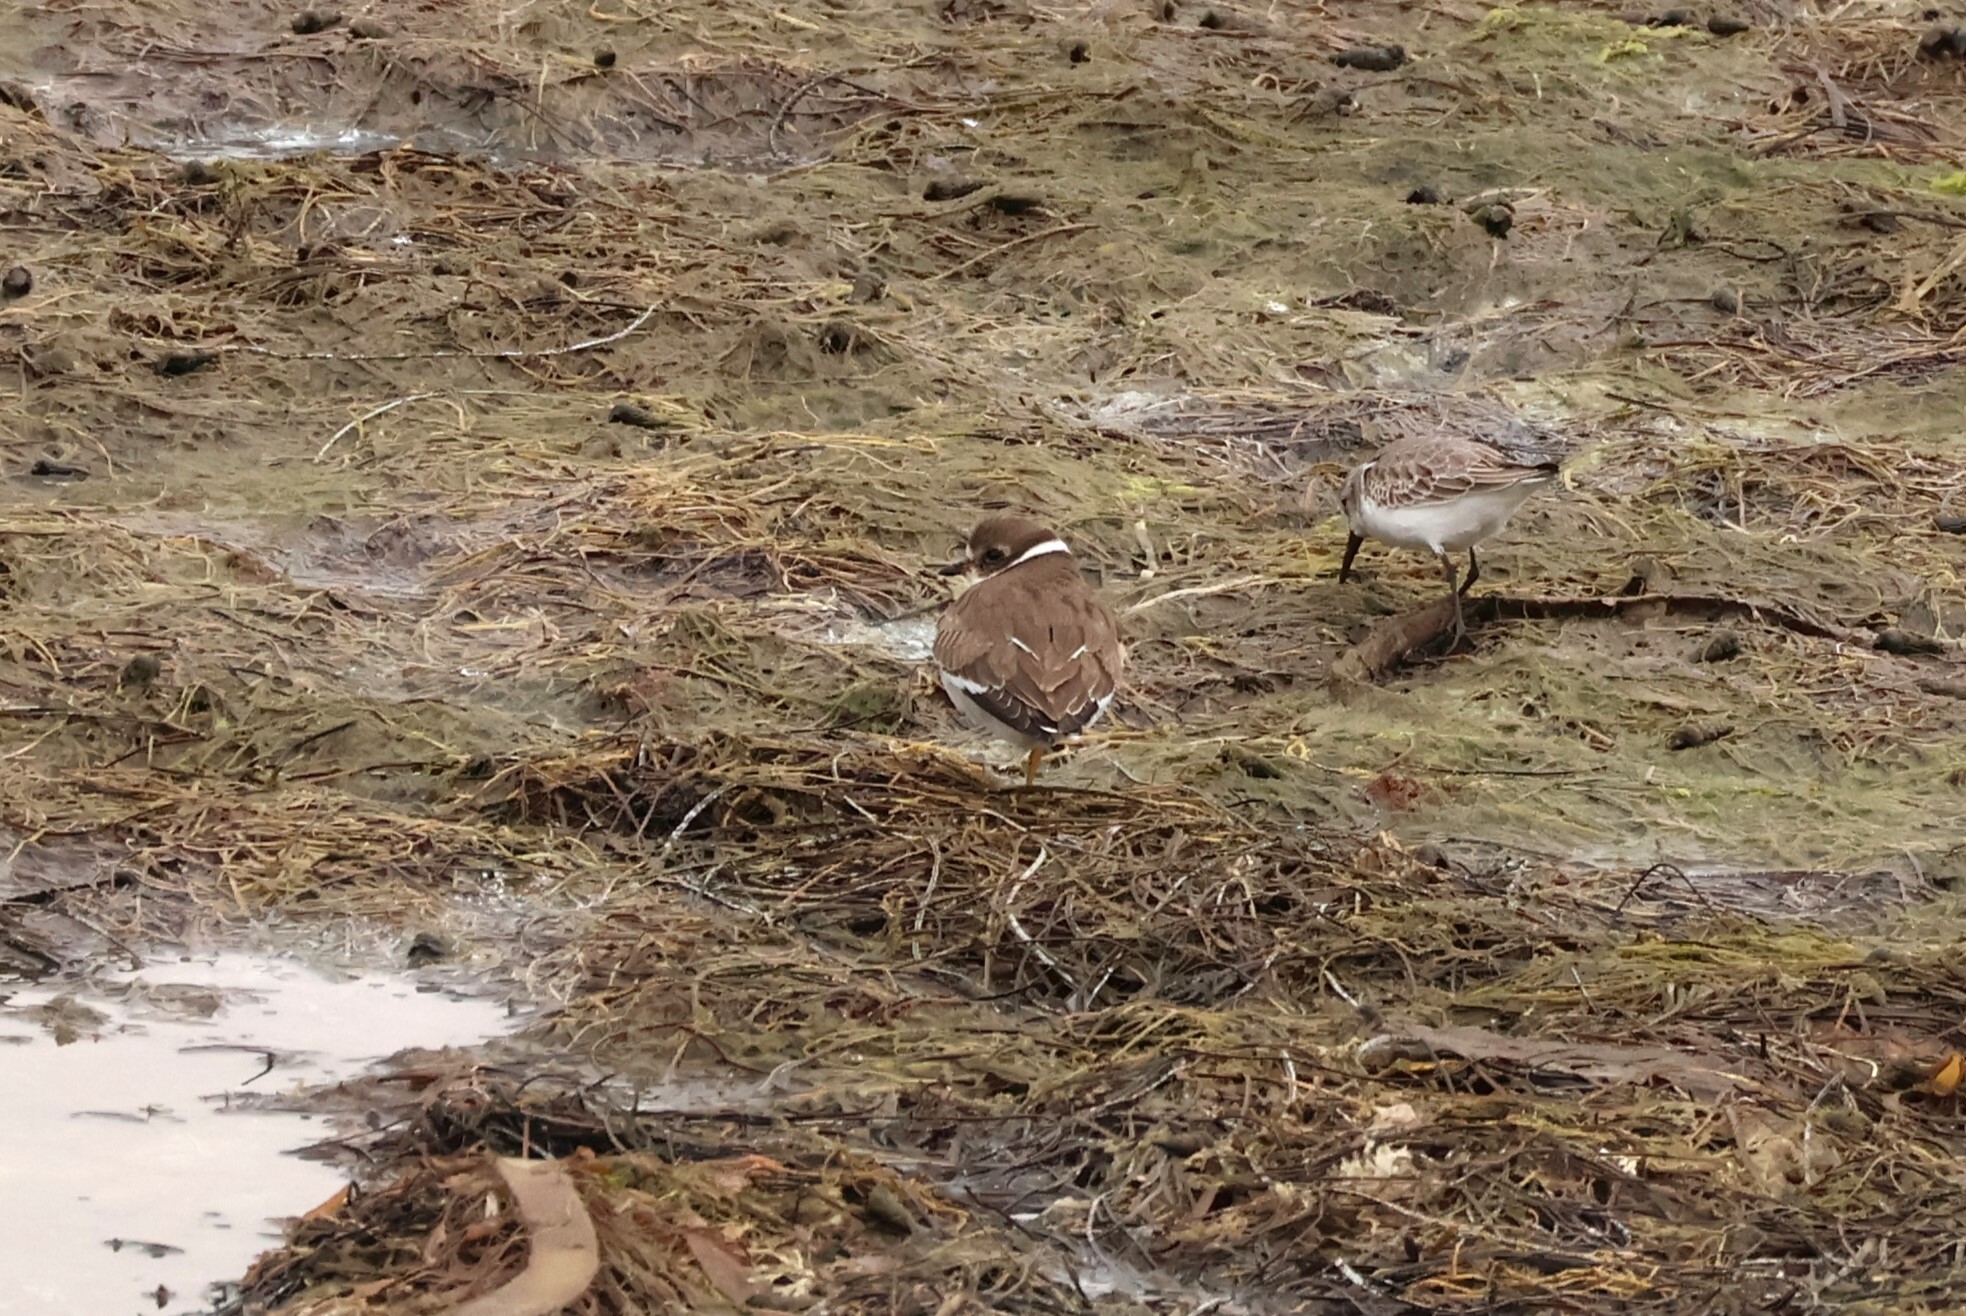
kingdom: Animalia
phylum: Chordata
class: Aves
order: Charadriiformes
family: Charadriidae
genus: Charadrius
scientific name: Charadrius semipalmatus
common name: Semipalmated plover
